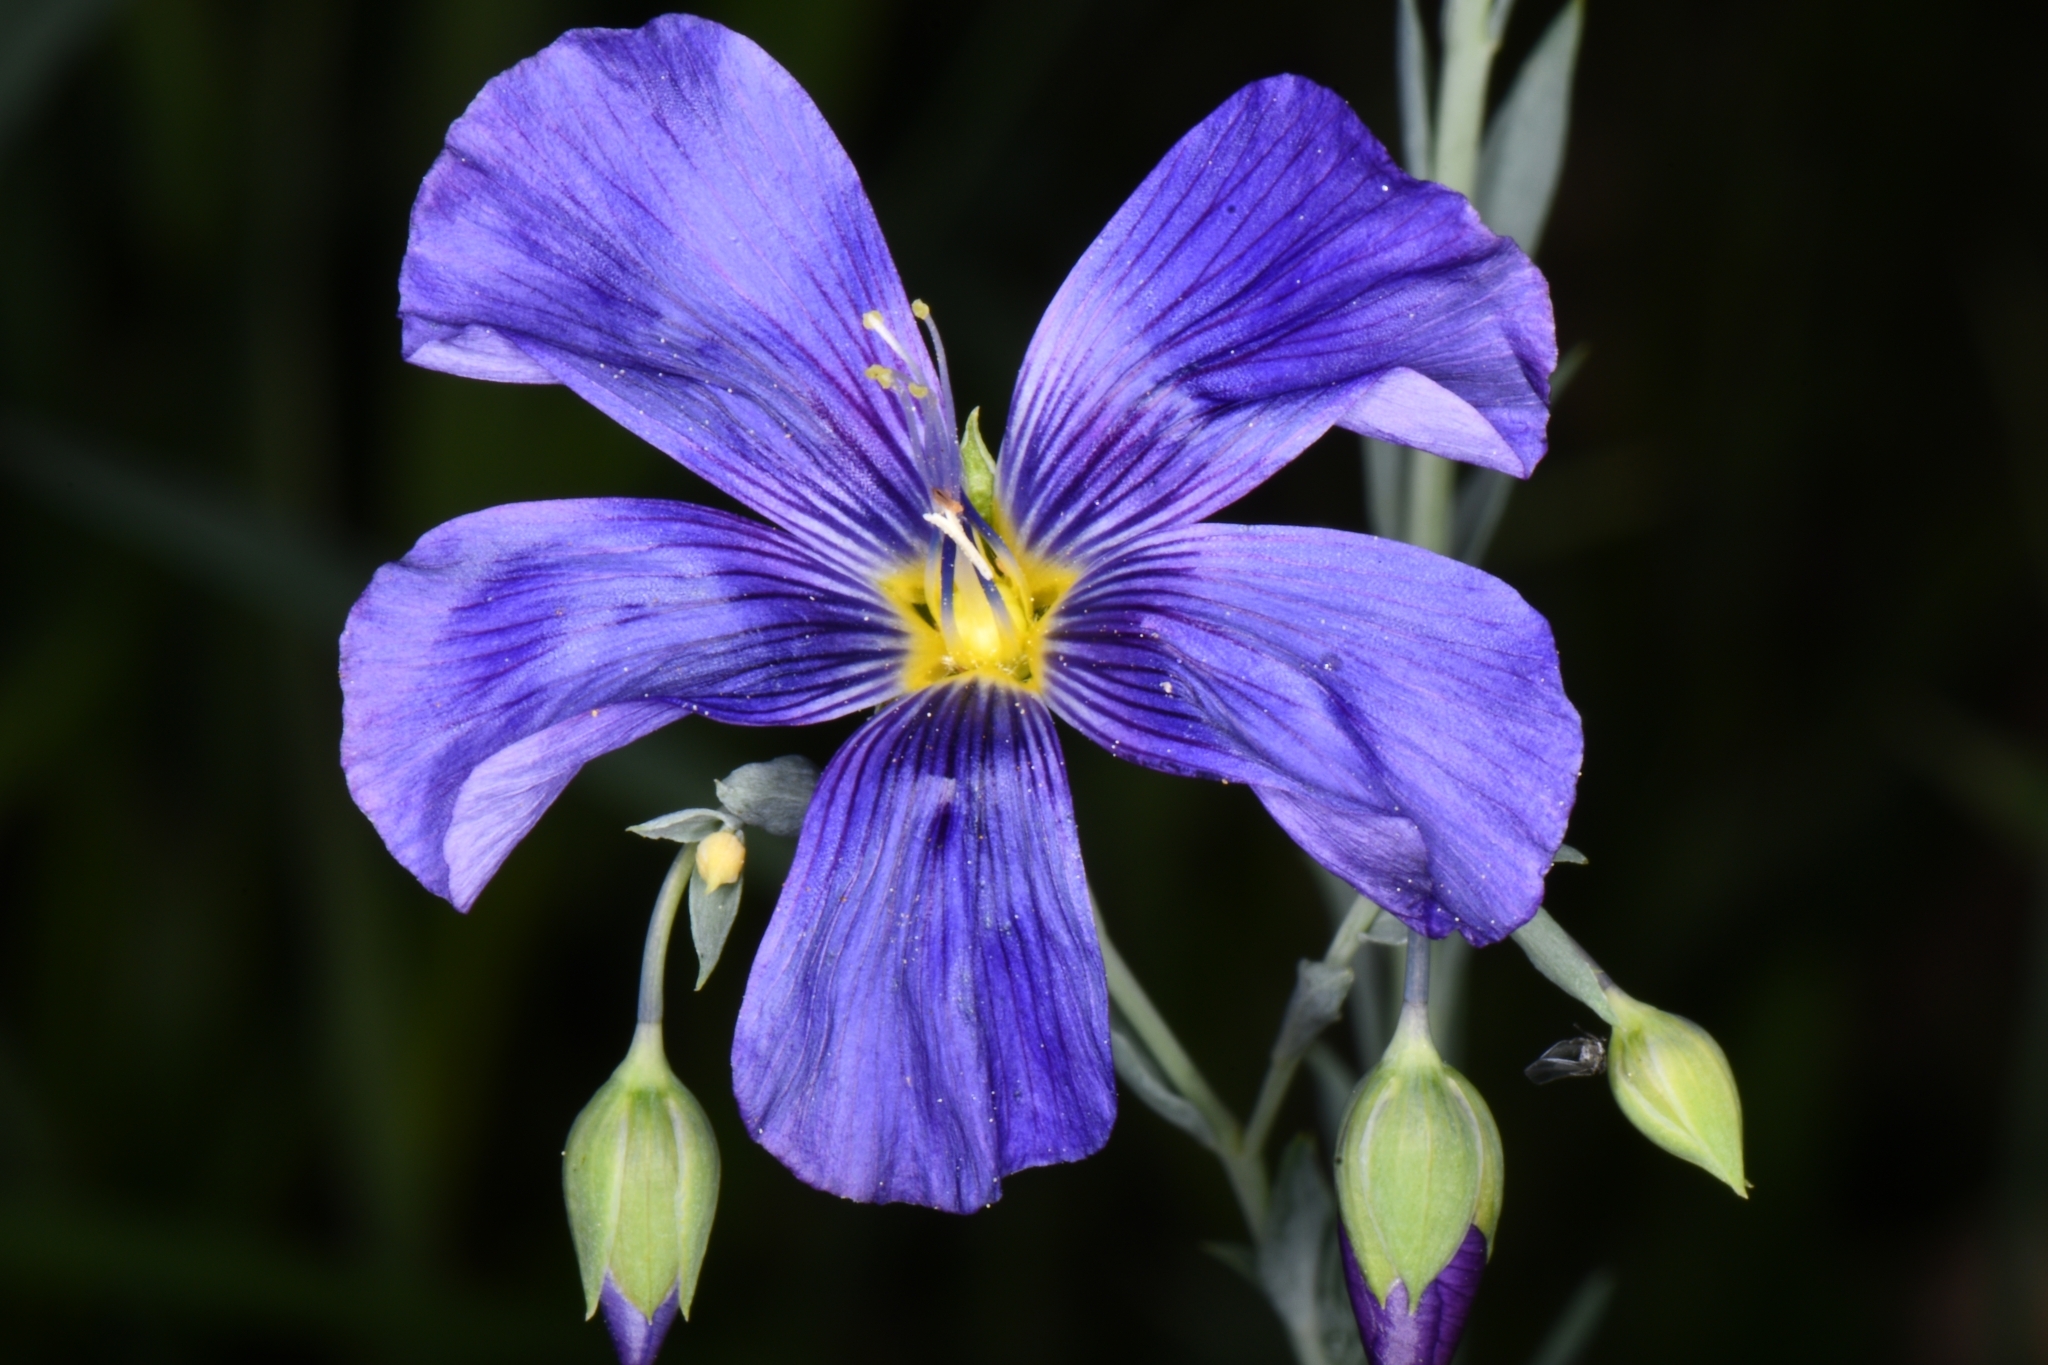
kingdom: Plantae
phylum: Tracheophyta
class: Magnoliopsida
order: Malpighiales
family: Linaceae
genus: Linum
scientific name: Linum lewisii
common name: Prairie flax
